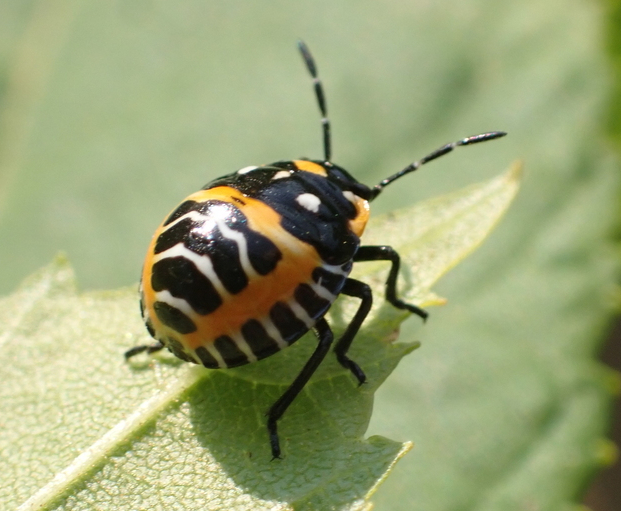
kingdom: Animalia
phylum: Arthropoda
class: Insecta
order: Hemiptera
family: Pentatomidae
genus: Murgantia
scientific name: Murgantia histrionica
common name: Harlequin bug
